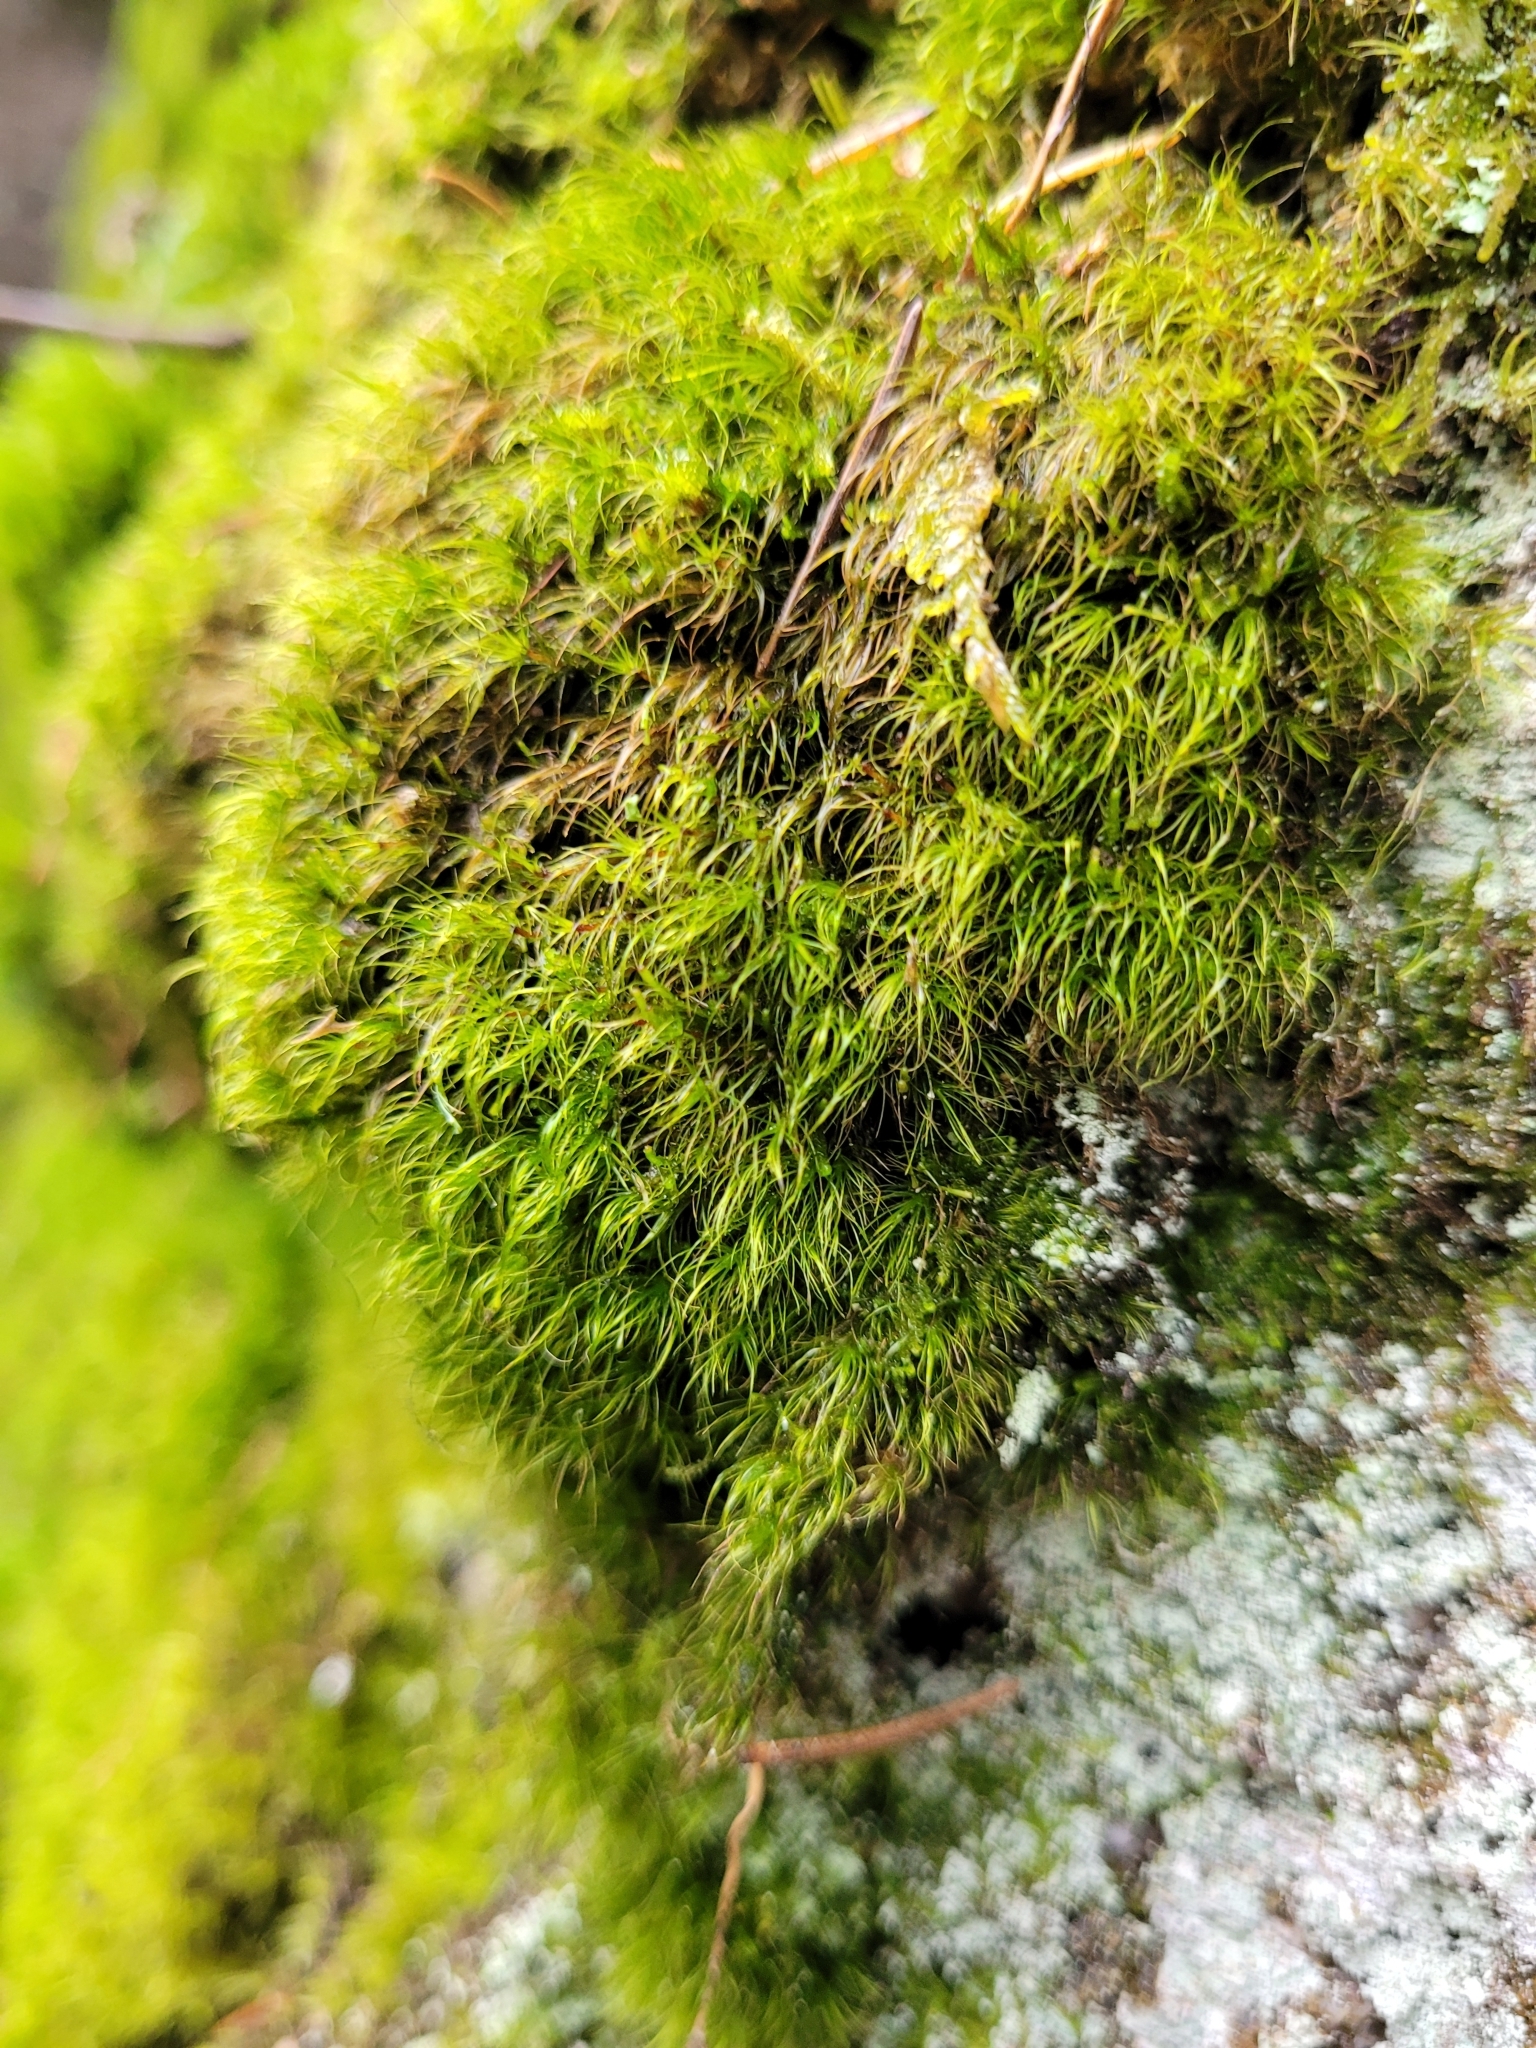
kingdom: Plantae
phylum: Bryophyta
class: Bryopsida
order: Dicranales
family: Leucobryaceae
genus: Dicranodontium
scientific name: Dicranodontium denudatum
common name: Beaked bow moss
